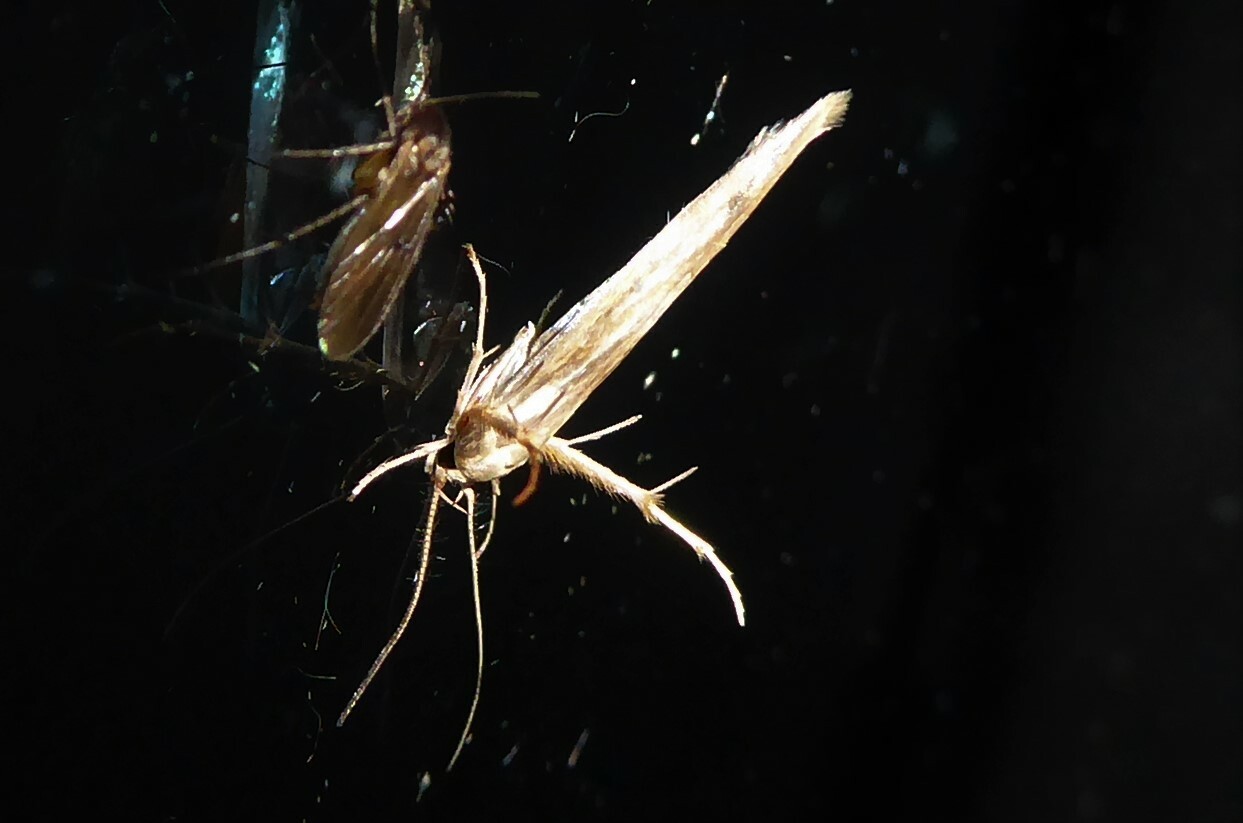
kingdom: Animalia
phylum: Arthropoda
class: Insecta
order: Lepidoptera
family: Stathmopodidae
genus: Stathmopoda
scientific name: Stathmopoda aposema
